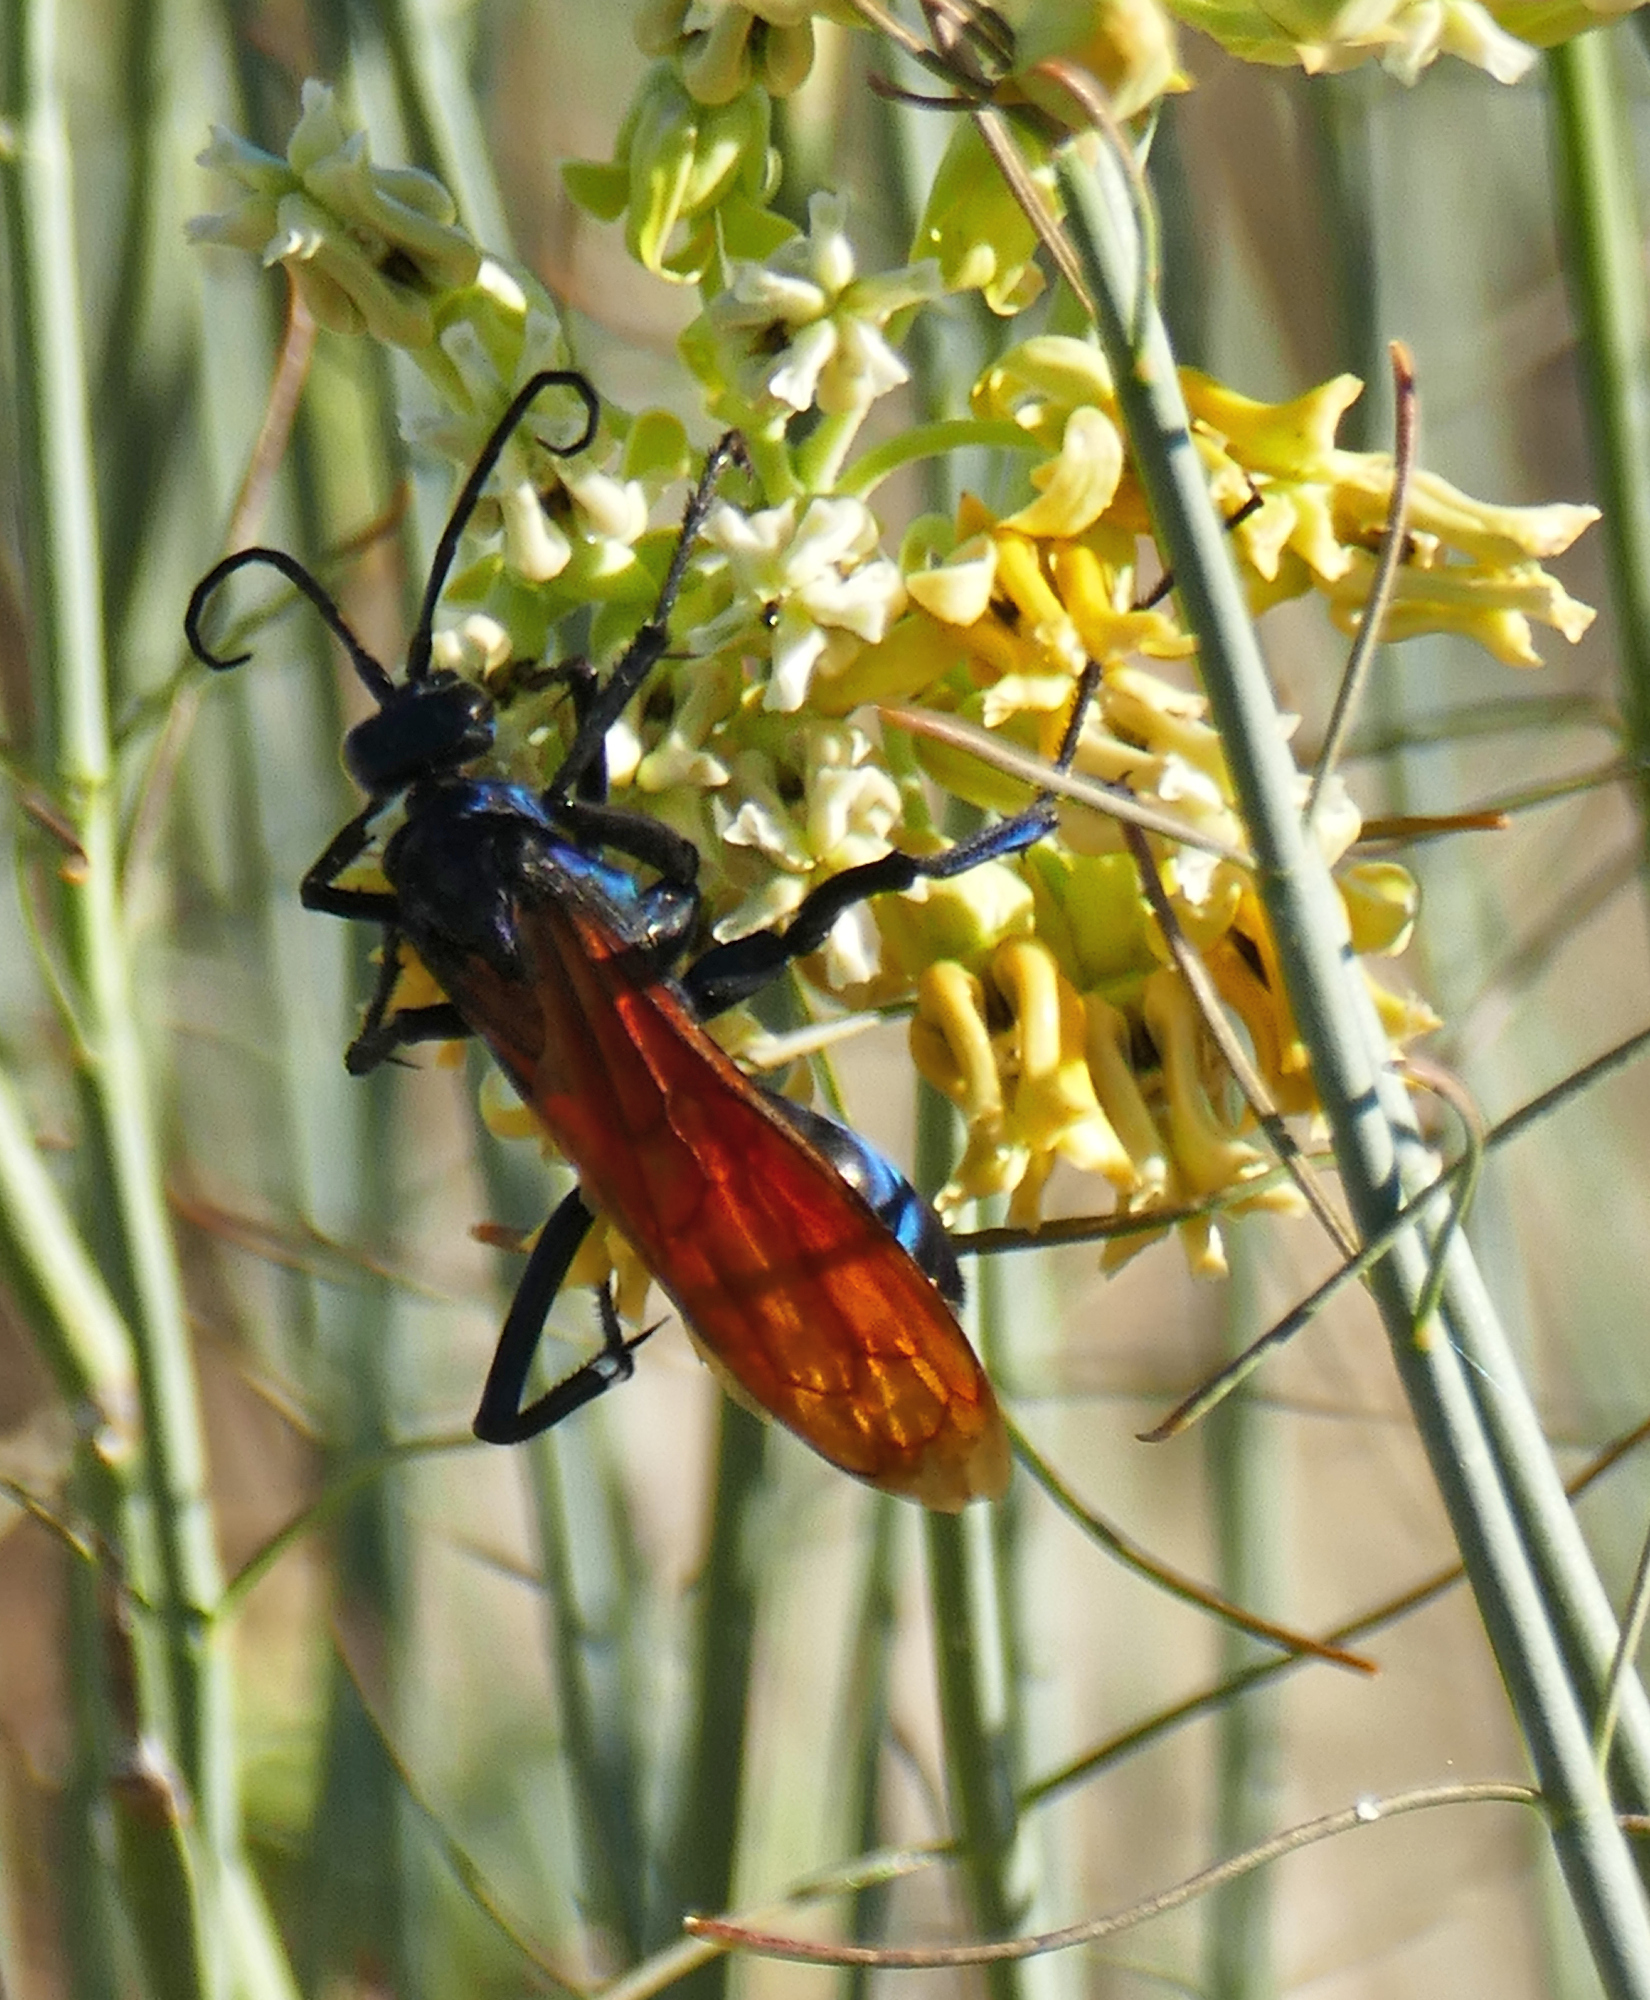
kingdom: Animalia
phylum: Arthropoda
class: Insecta
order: Hymenoptera
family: Pompilidae
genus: Pepsis
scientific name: Pepsis thisbe
